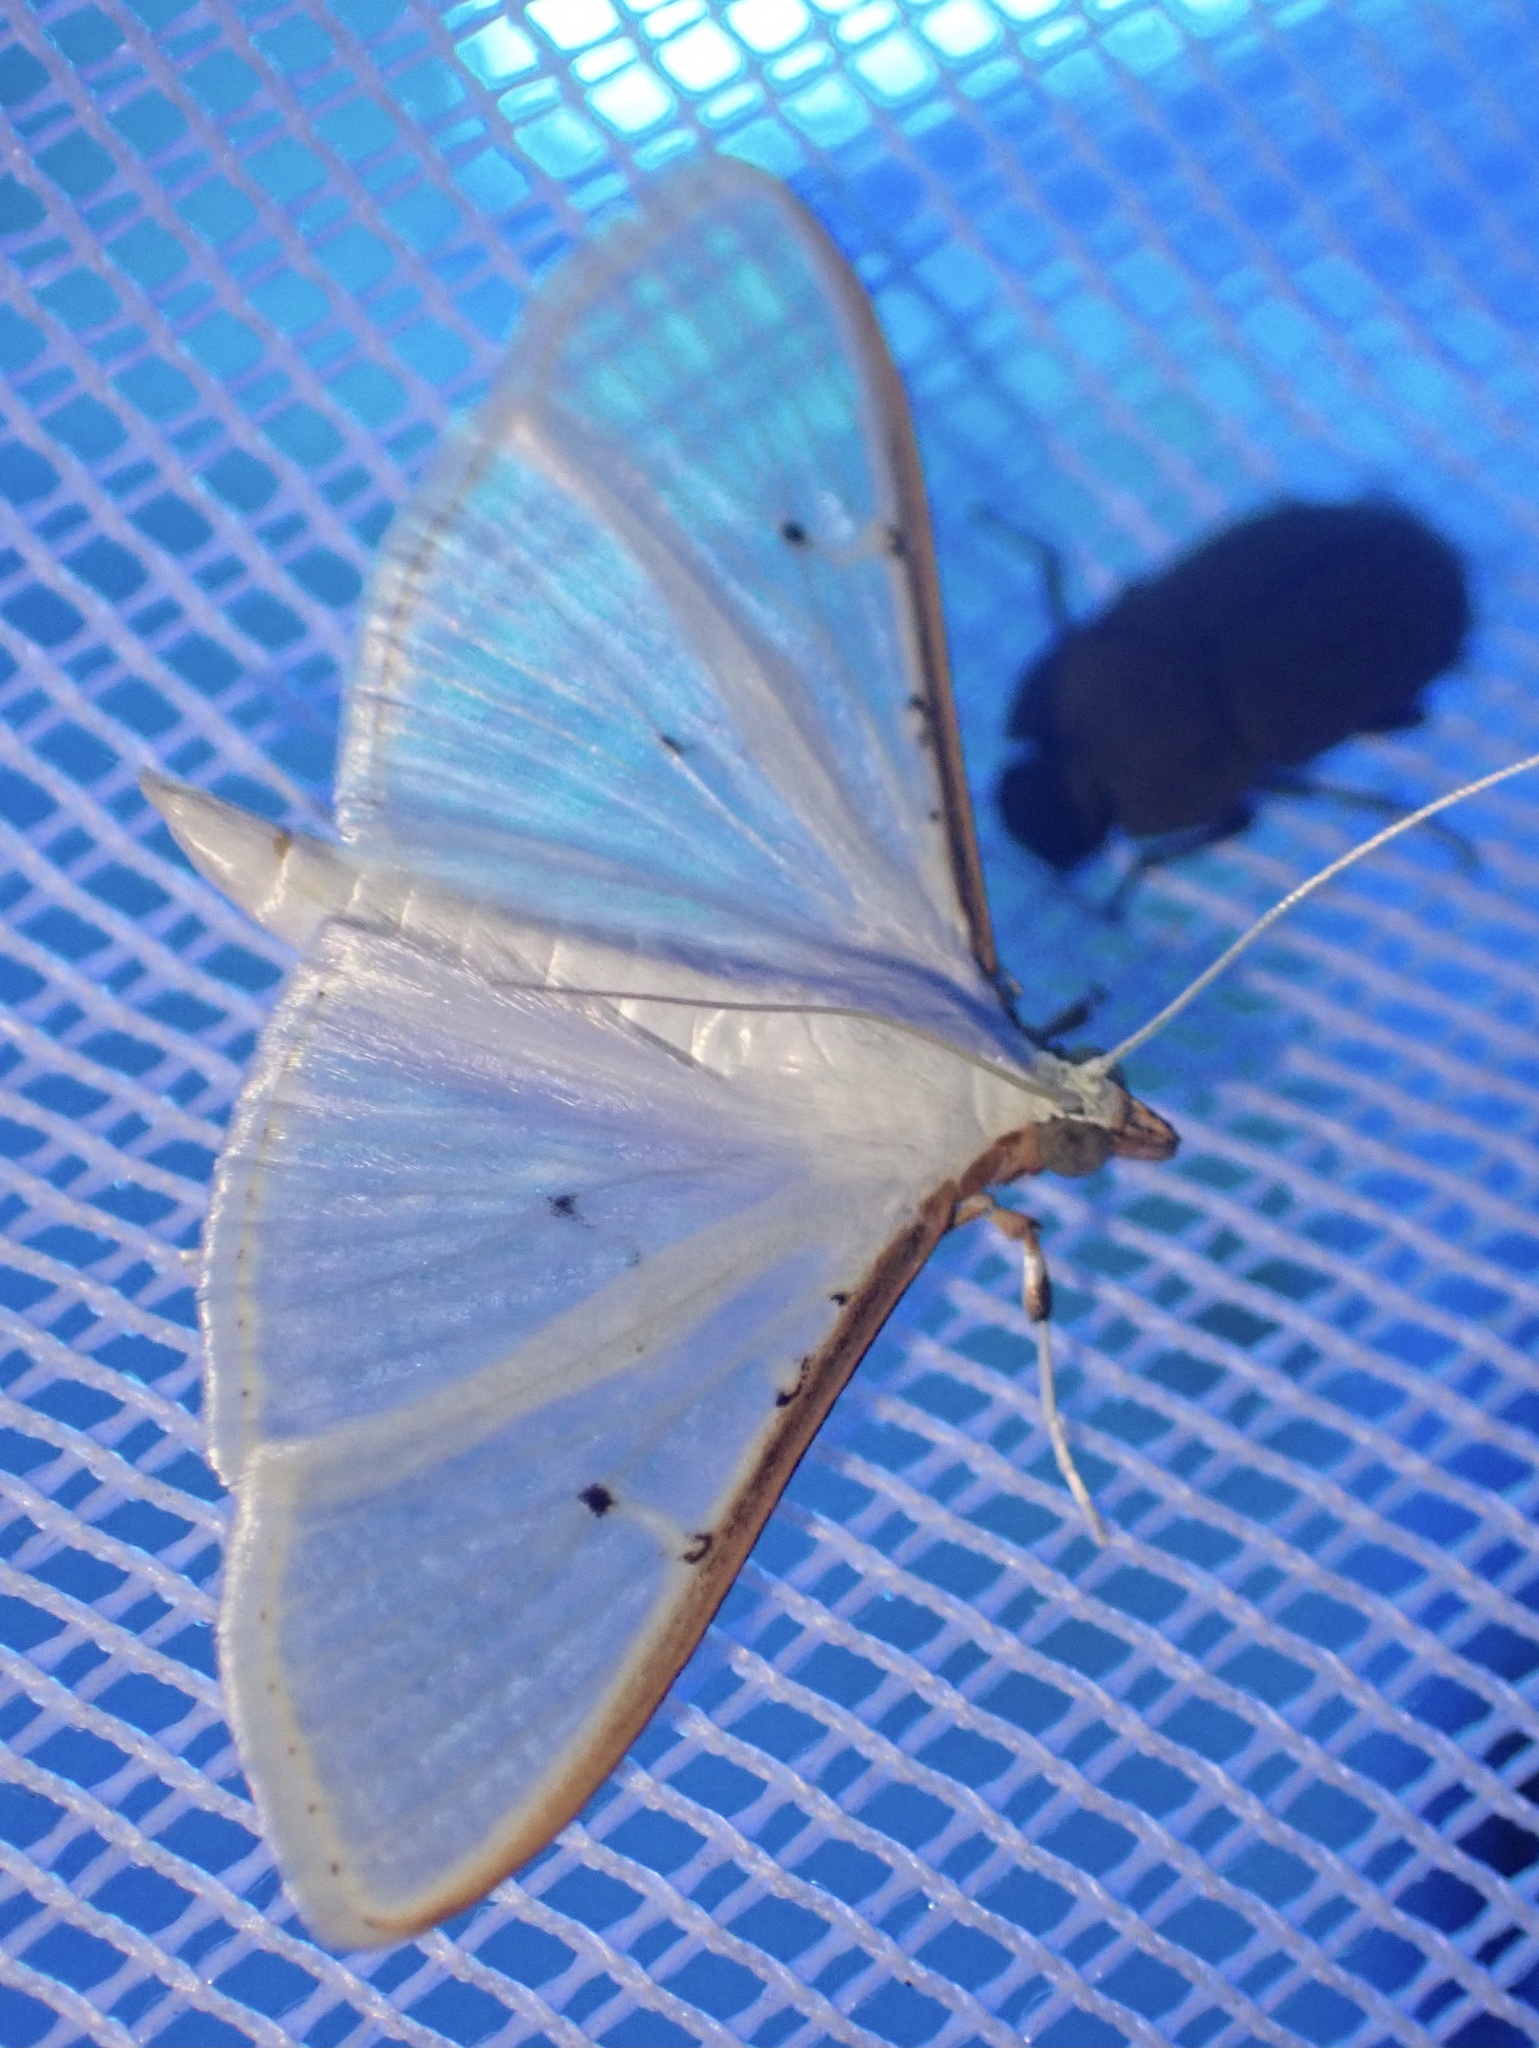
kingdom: Animalia
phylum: Arthropoda
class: Insecta
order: Lepidoptera
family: Crambidae
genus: Palpita
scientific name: Palpita vitrealis
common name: Olive-tree pearl
